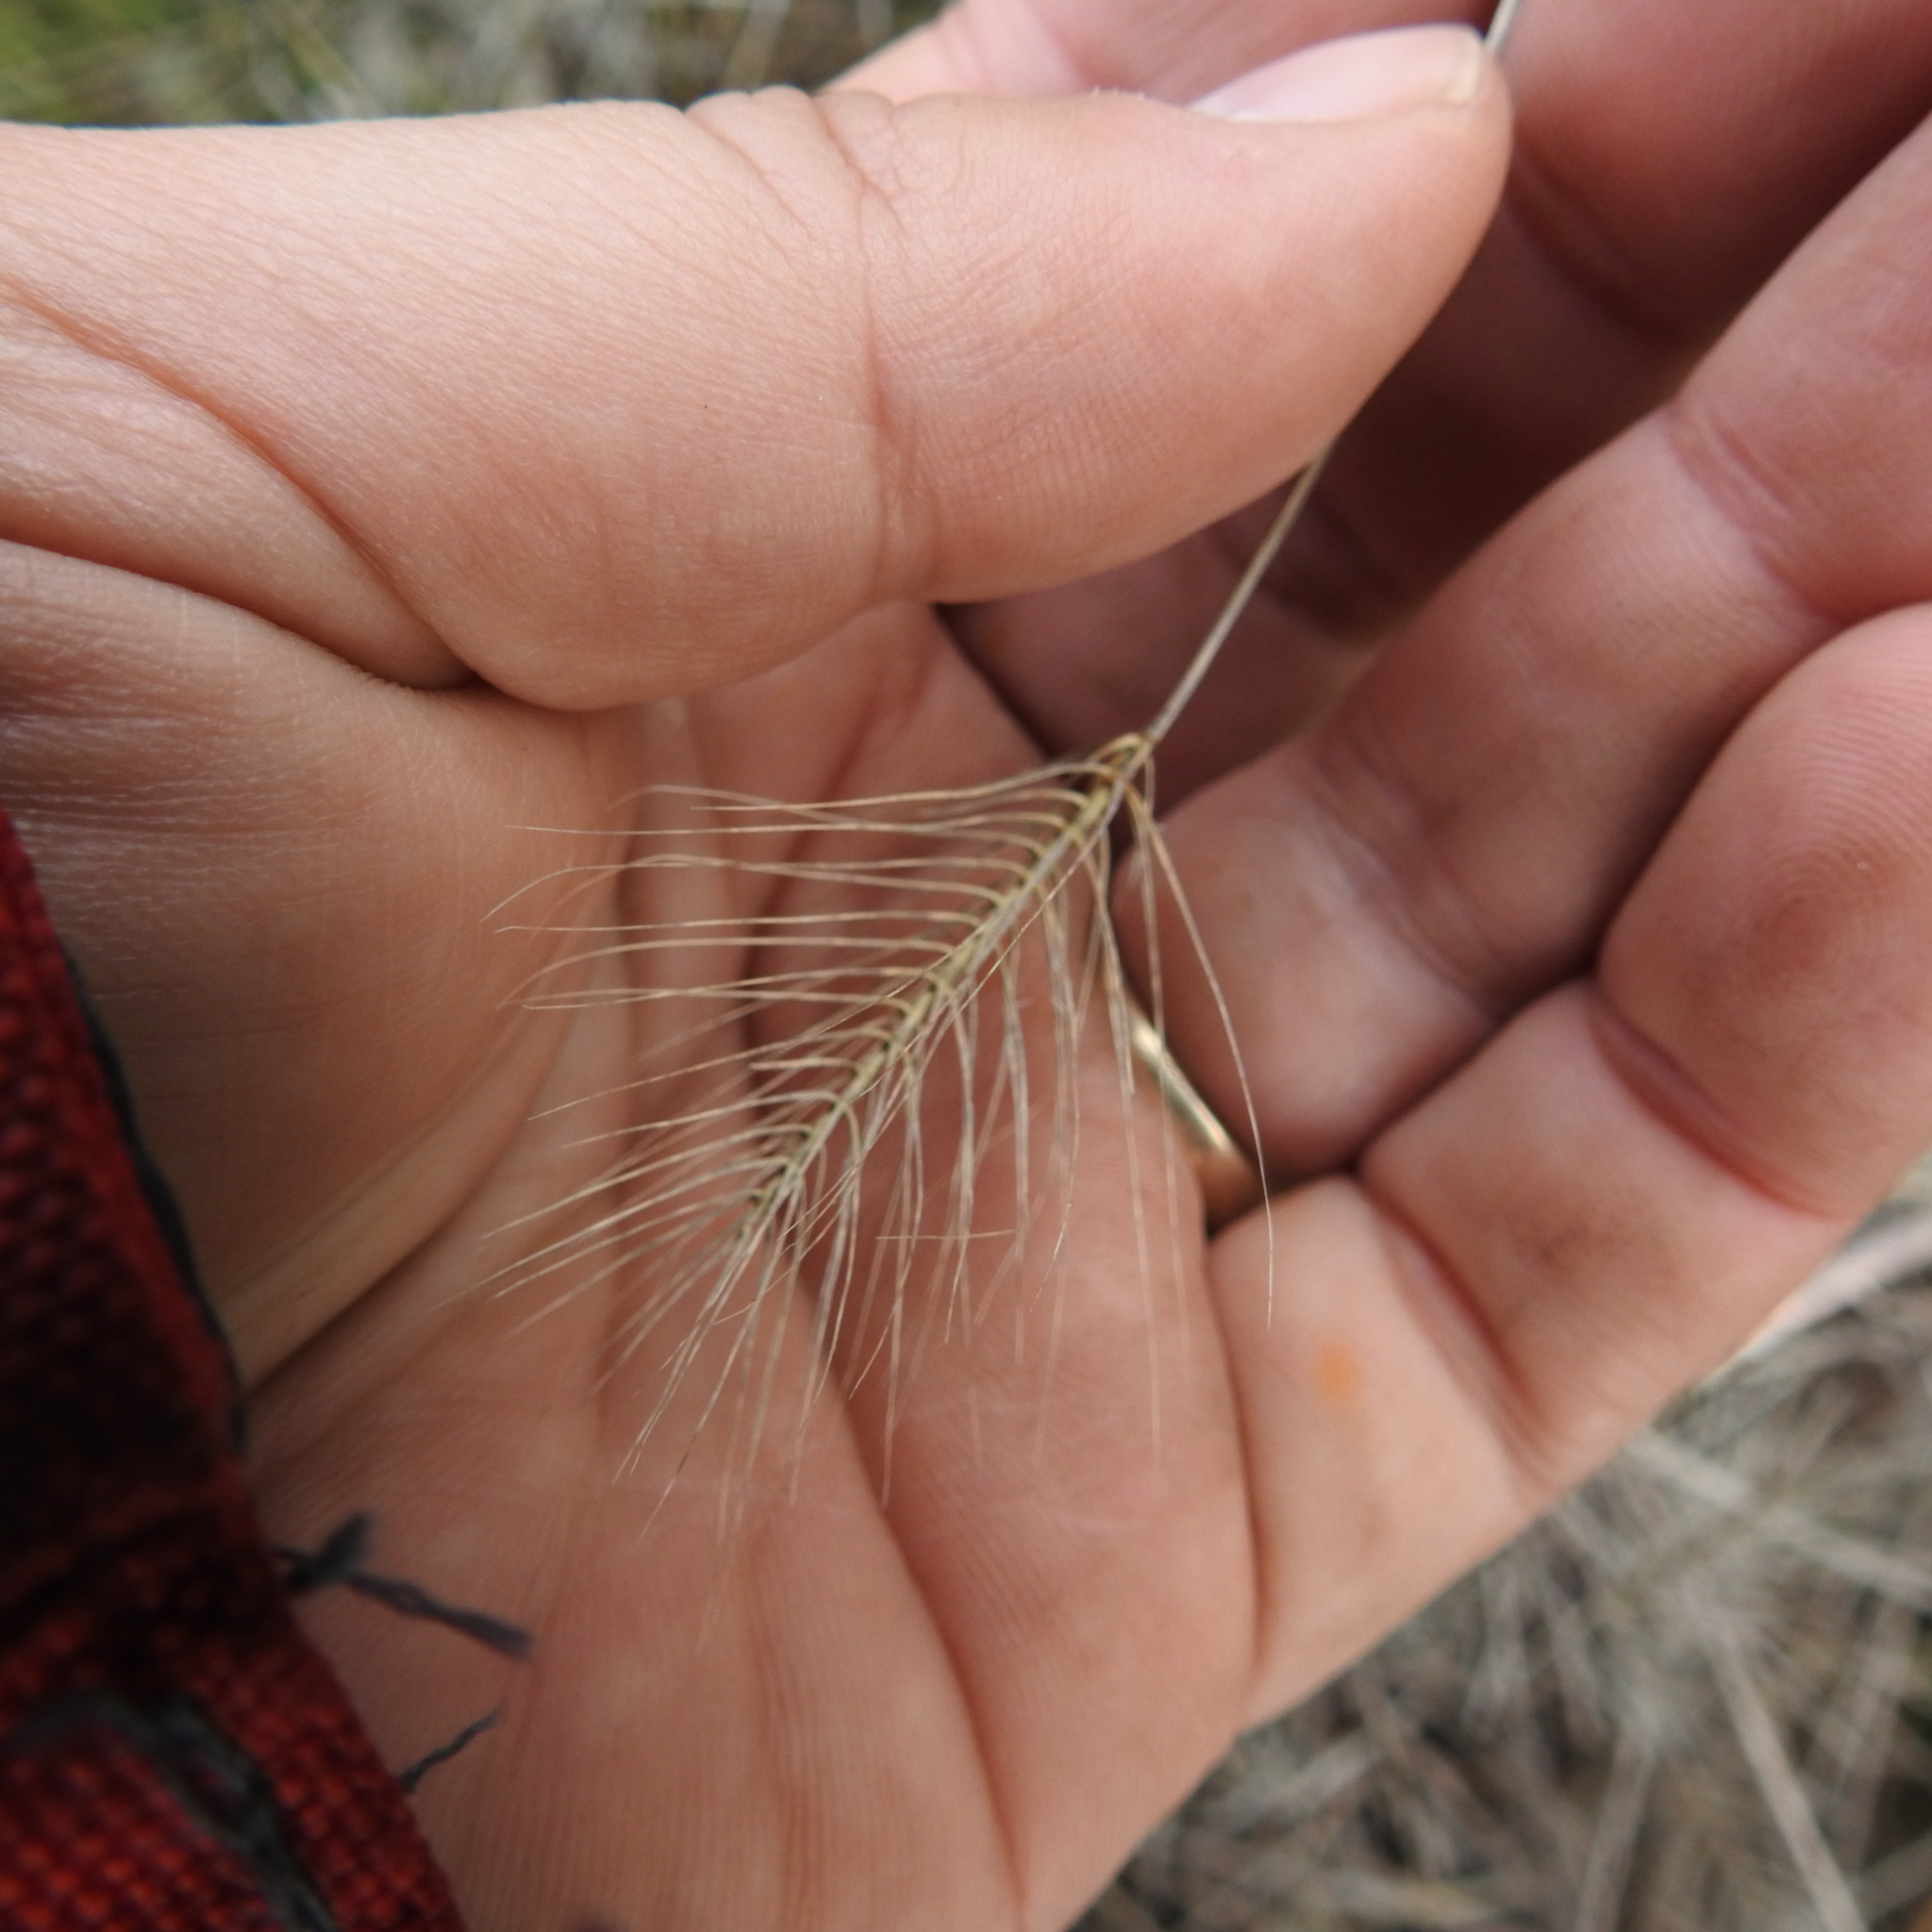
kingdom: Plantae
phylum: Tracheophyta
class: Liliopsida
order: Poales
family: Poaceae
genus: Taeniatherum
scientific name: Taeniatherum caput-medusae
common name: Medusahead
